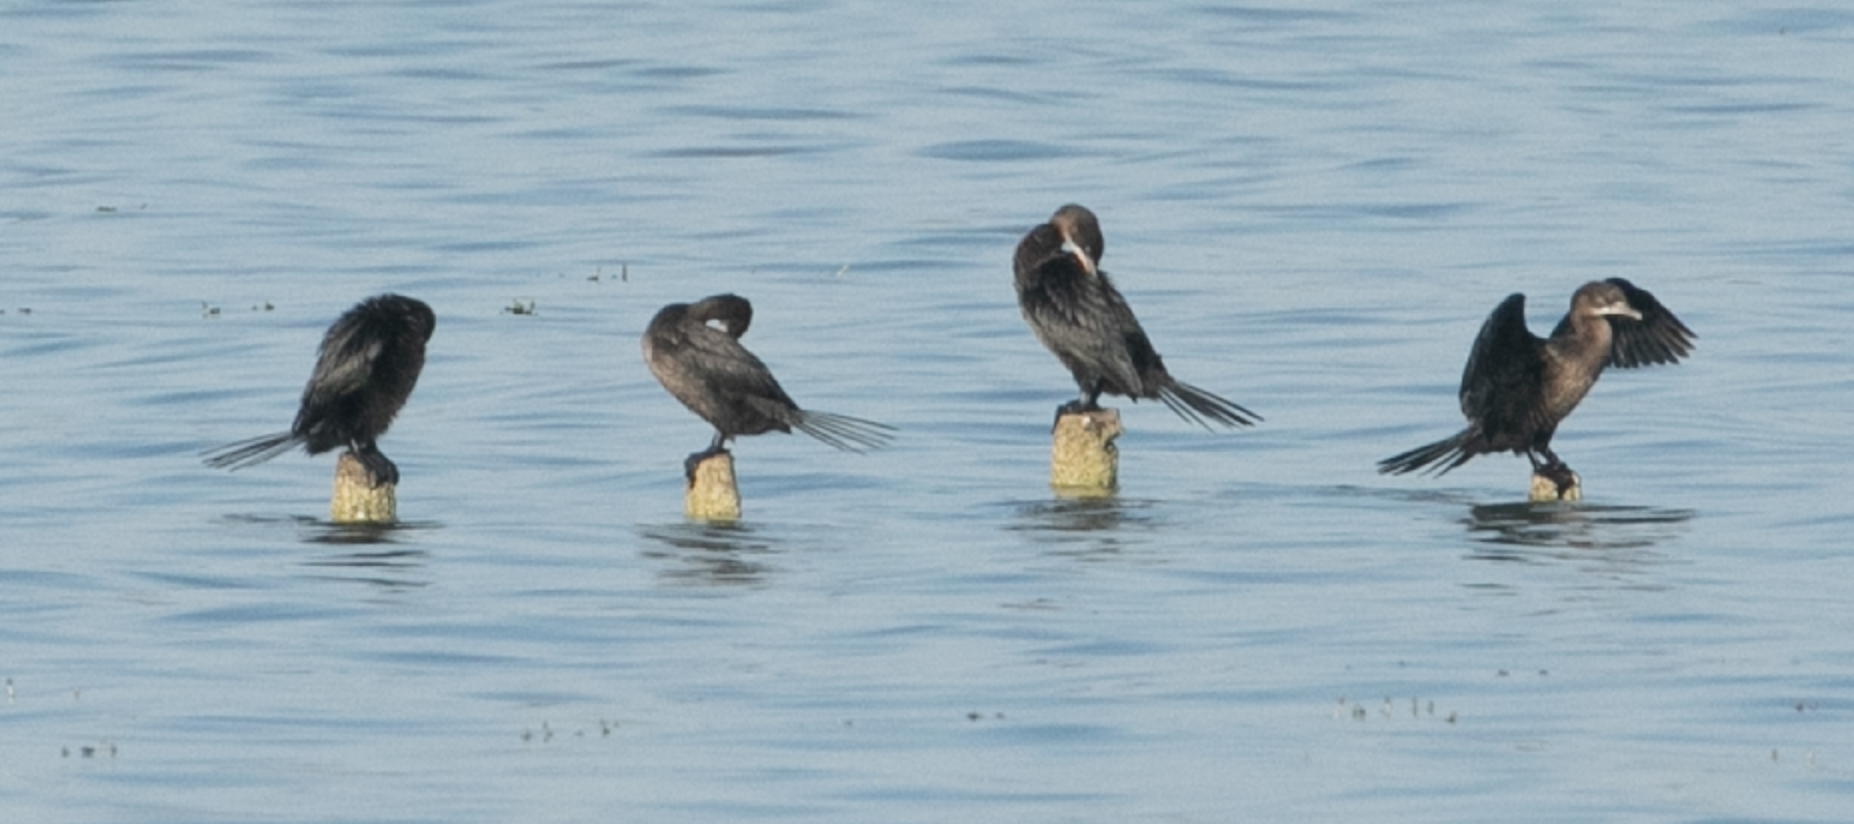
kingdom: Animalia
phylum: Chordata
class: Aves
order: Suliformes
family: Phalacrocoracidae
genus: Microcarbo
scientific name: Microcarbo pygmaeus
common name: Pygmy cormorant
